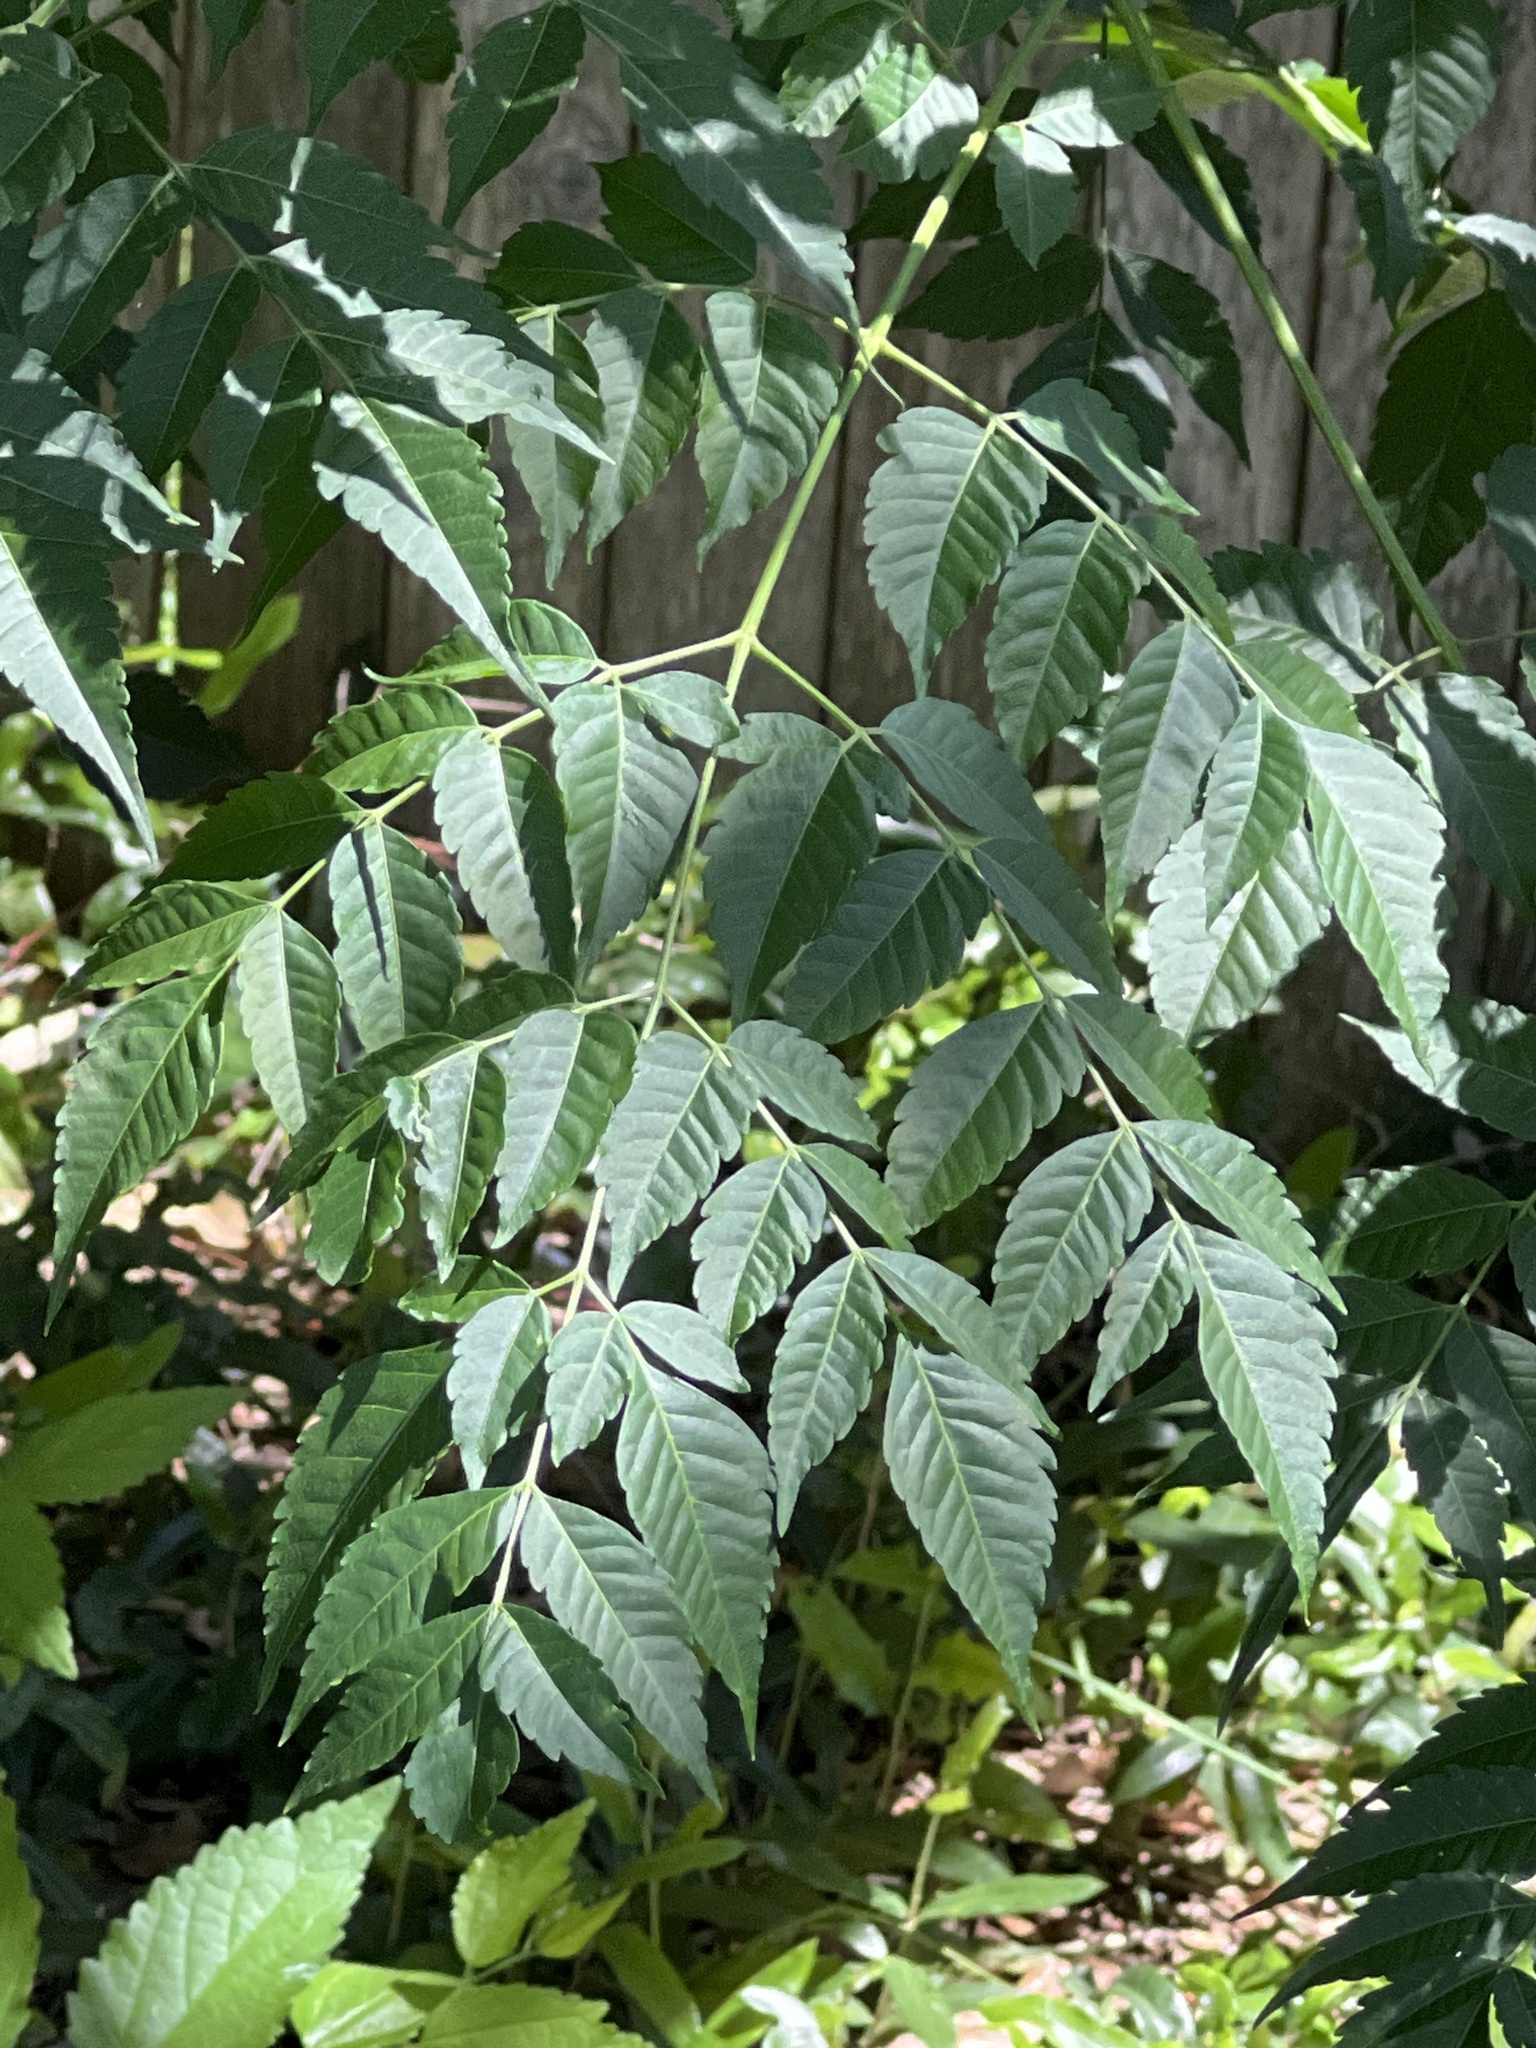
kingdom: Plantae
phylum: Tracheophyta
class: Magnoliopsida
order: Sapindales
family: Meliaceae
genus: Melia
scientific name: Melia azedarach
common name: Chinaberrytree
